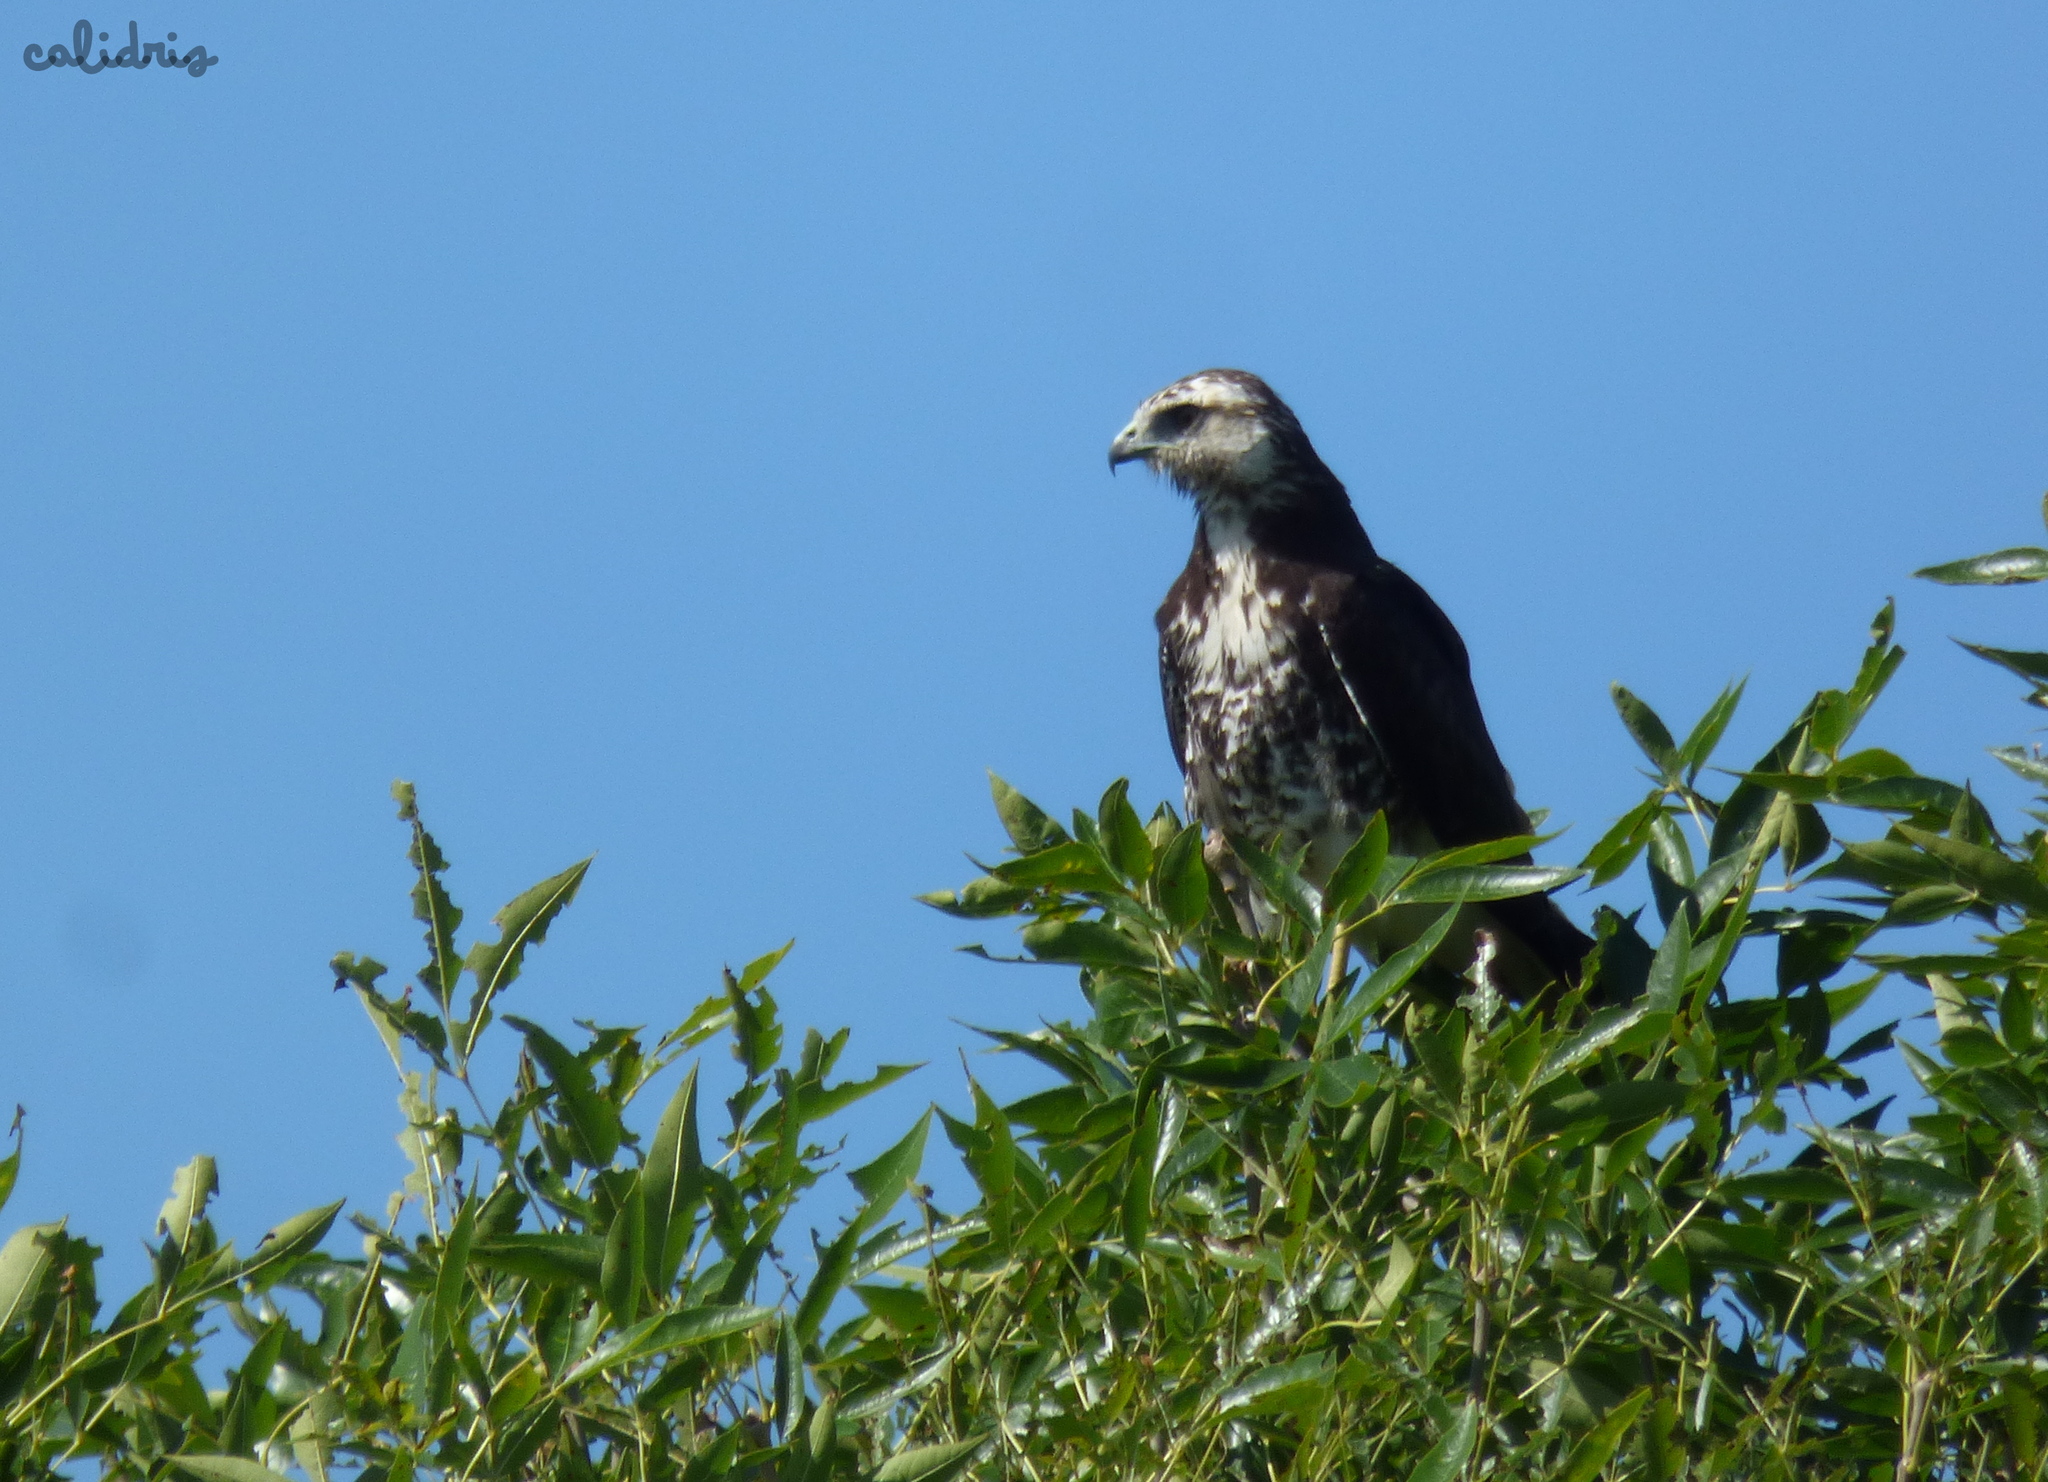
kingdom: Animalia
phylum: Chordata
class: Aves
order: Accipitriformes
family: Accipitridae
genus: Buteo
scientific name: Buteo albicaudatus
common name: White-tailed hawk
